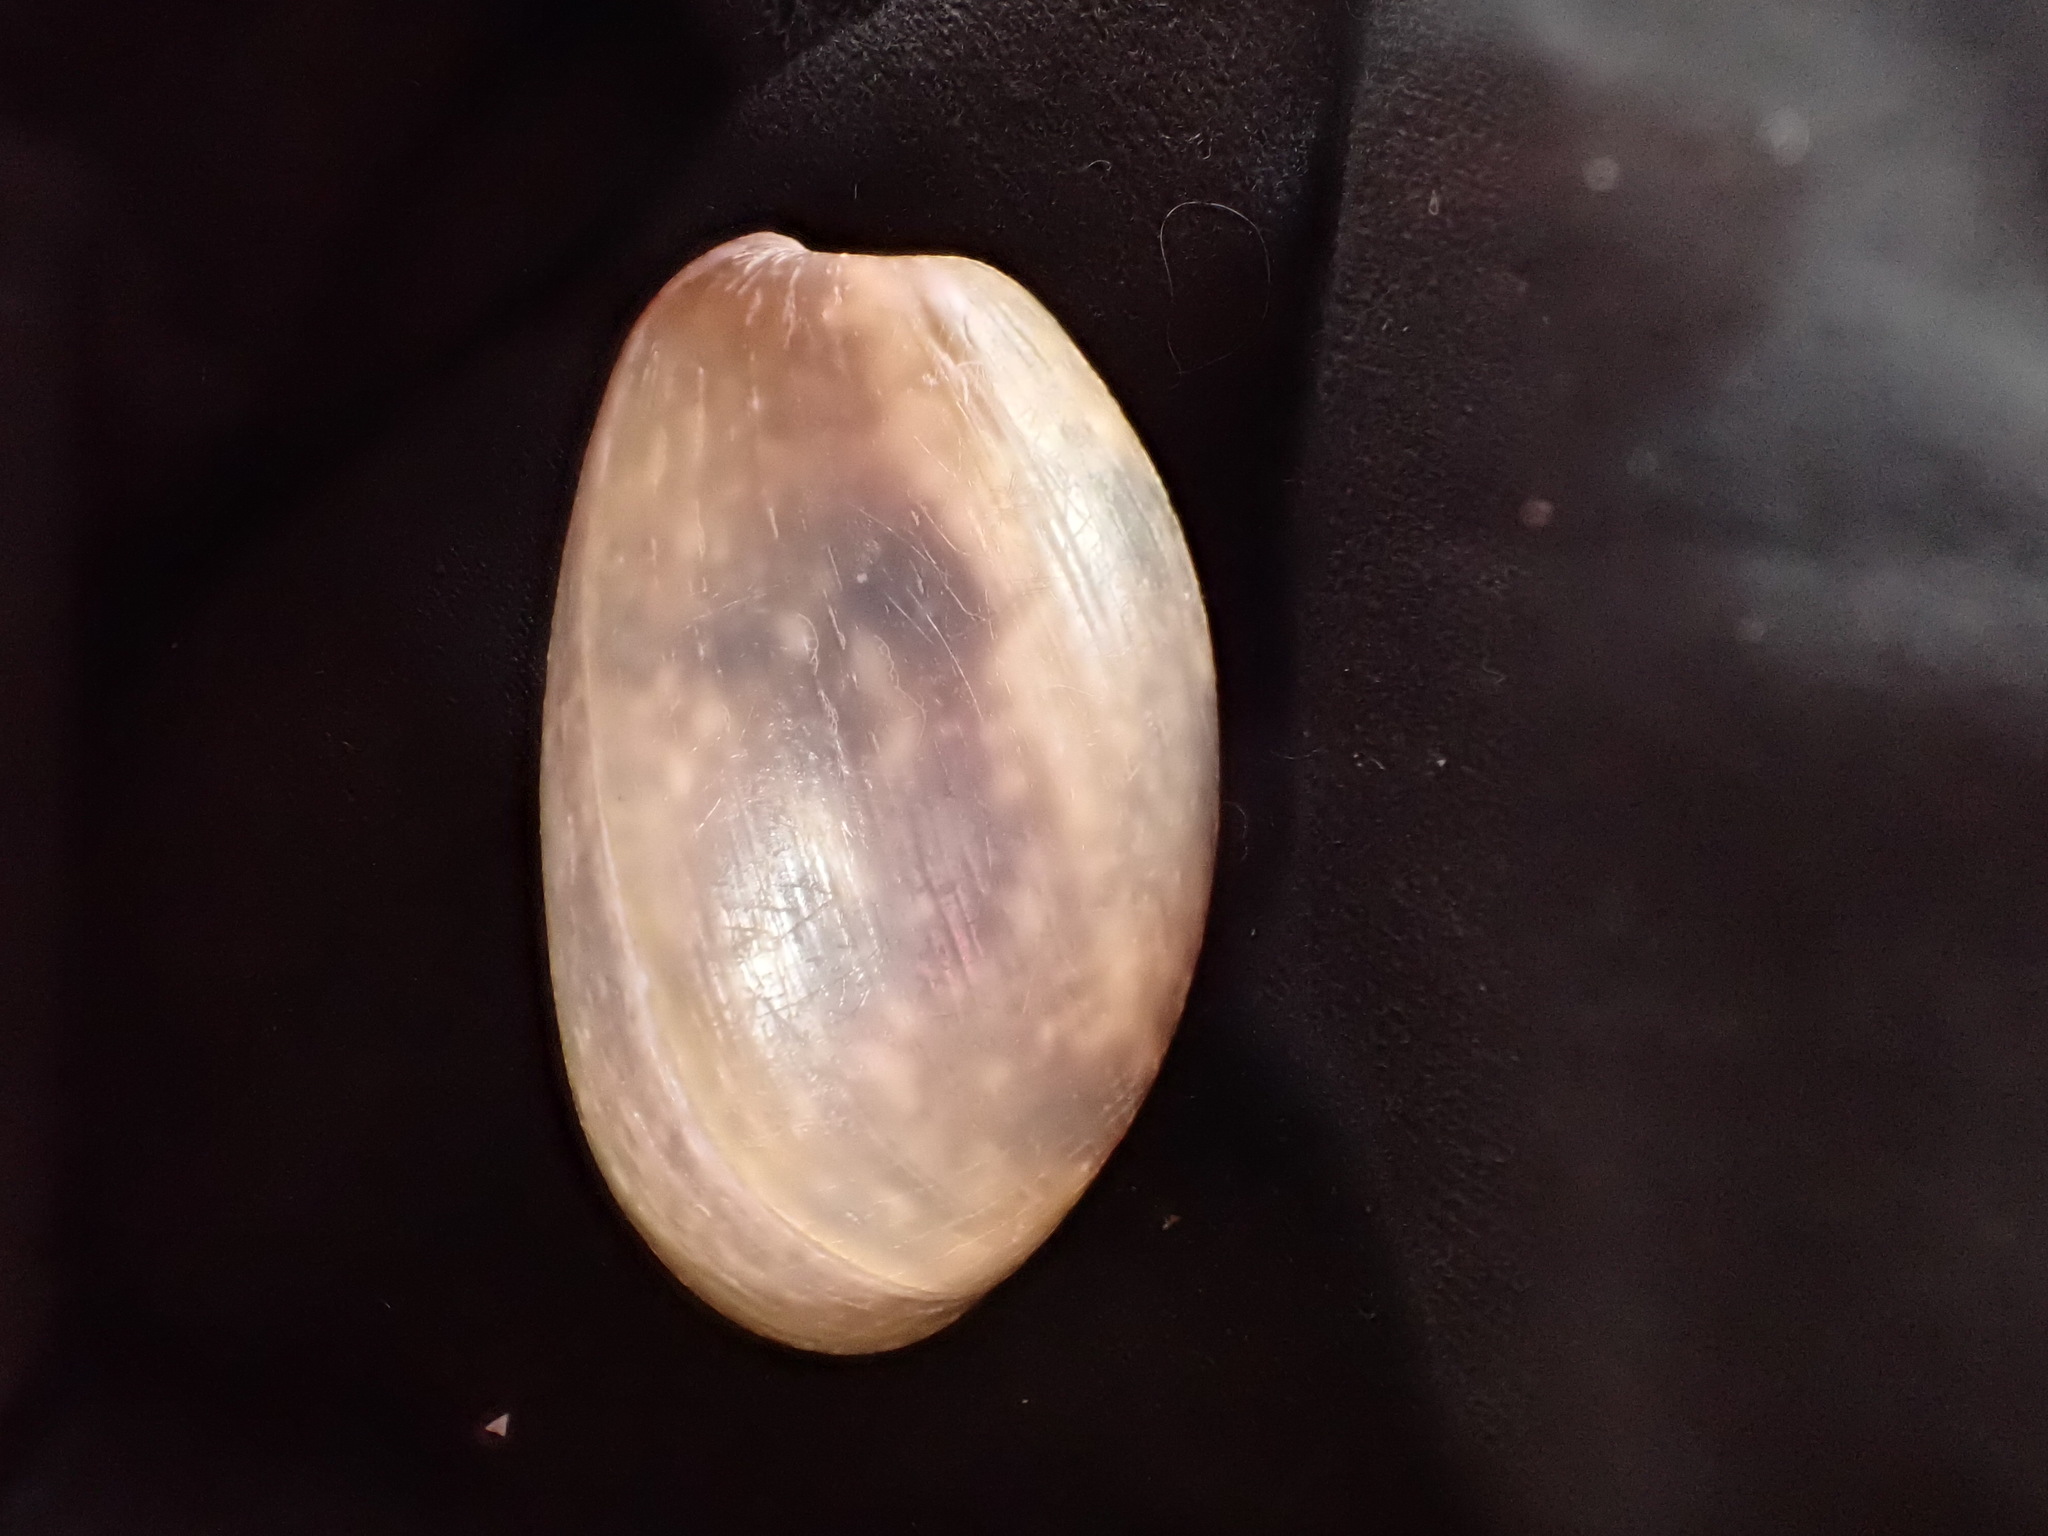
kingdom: Animalia
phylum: Mollusca
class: Gastropoda
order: Cephalaspidea
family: Bullidae
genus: Bulla
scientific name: Bulla quoyii
